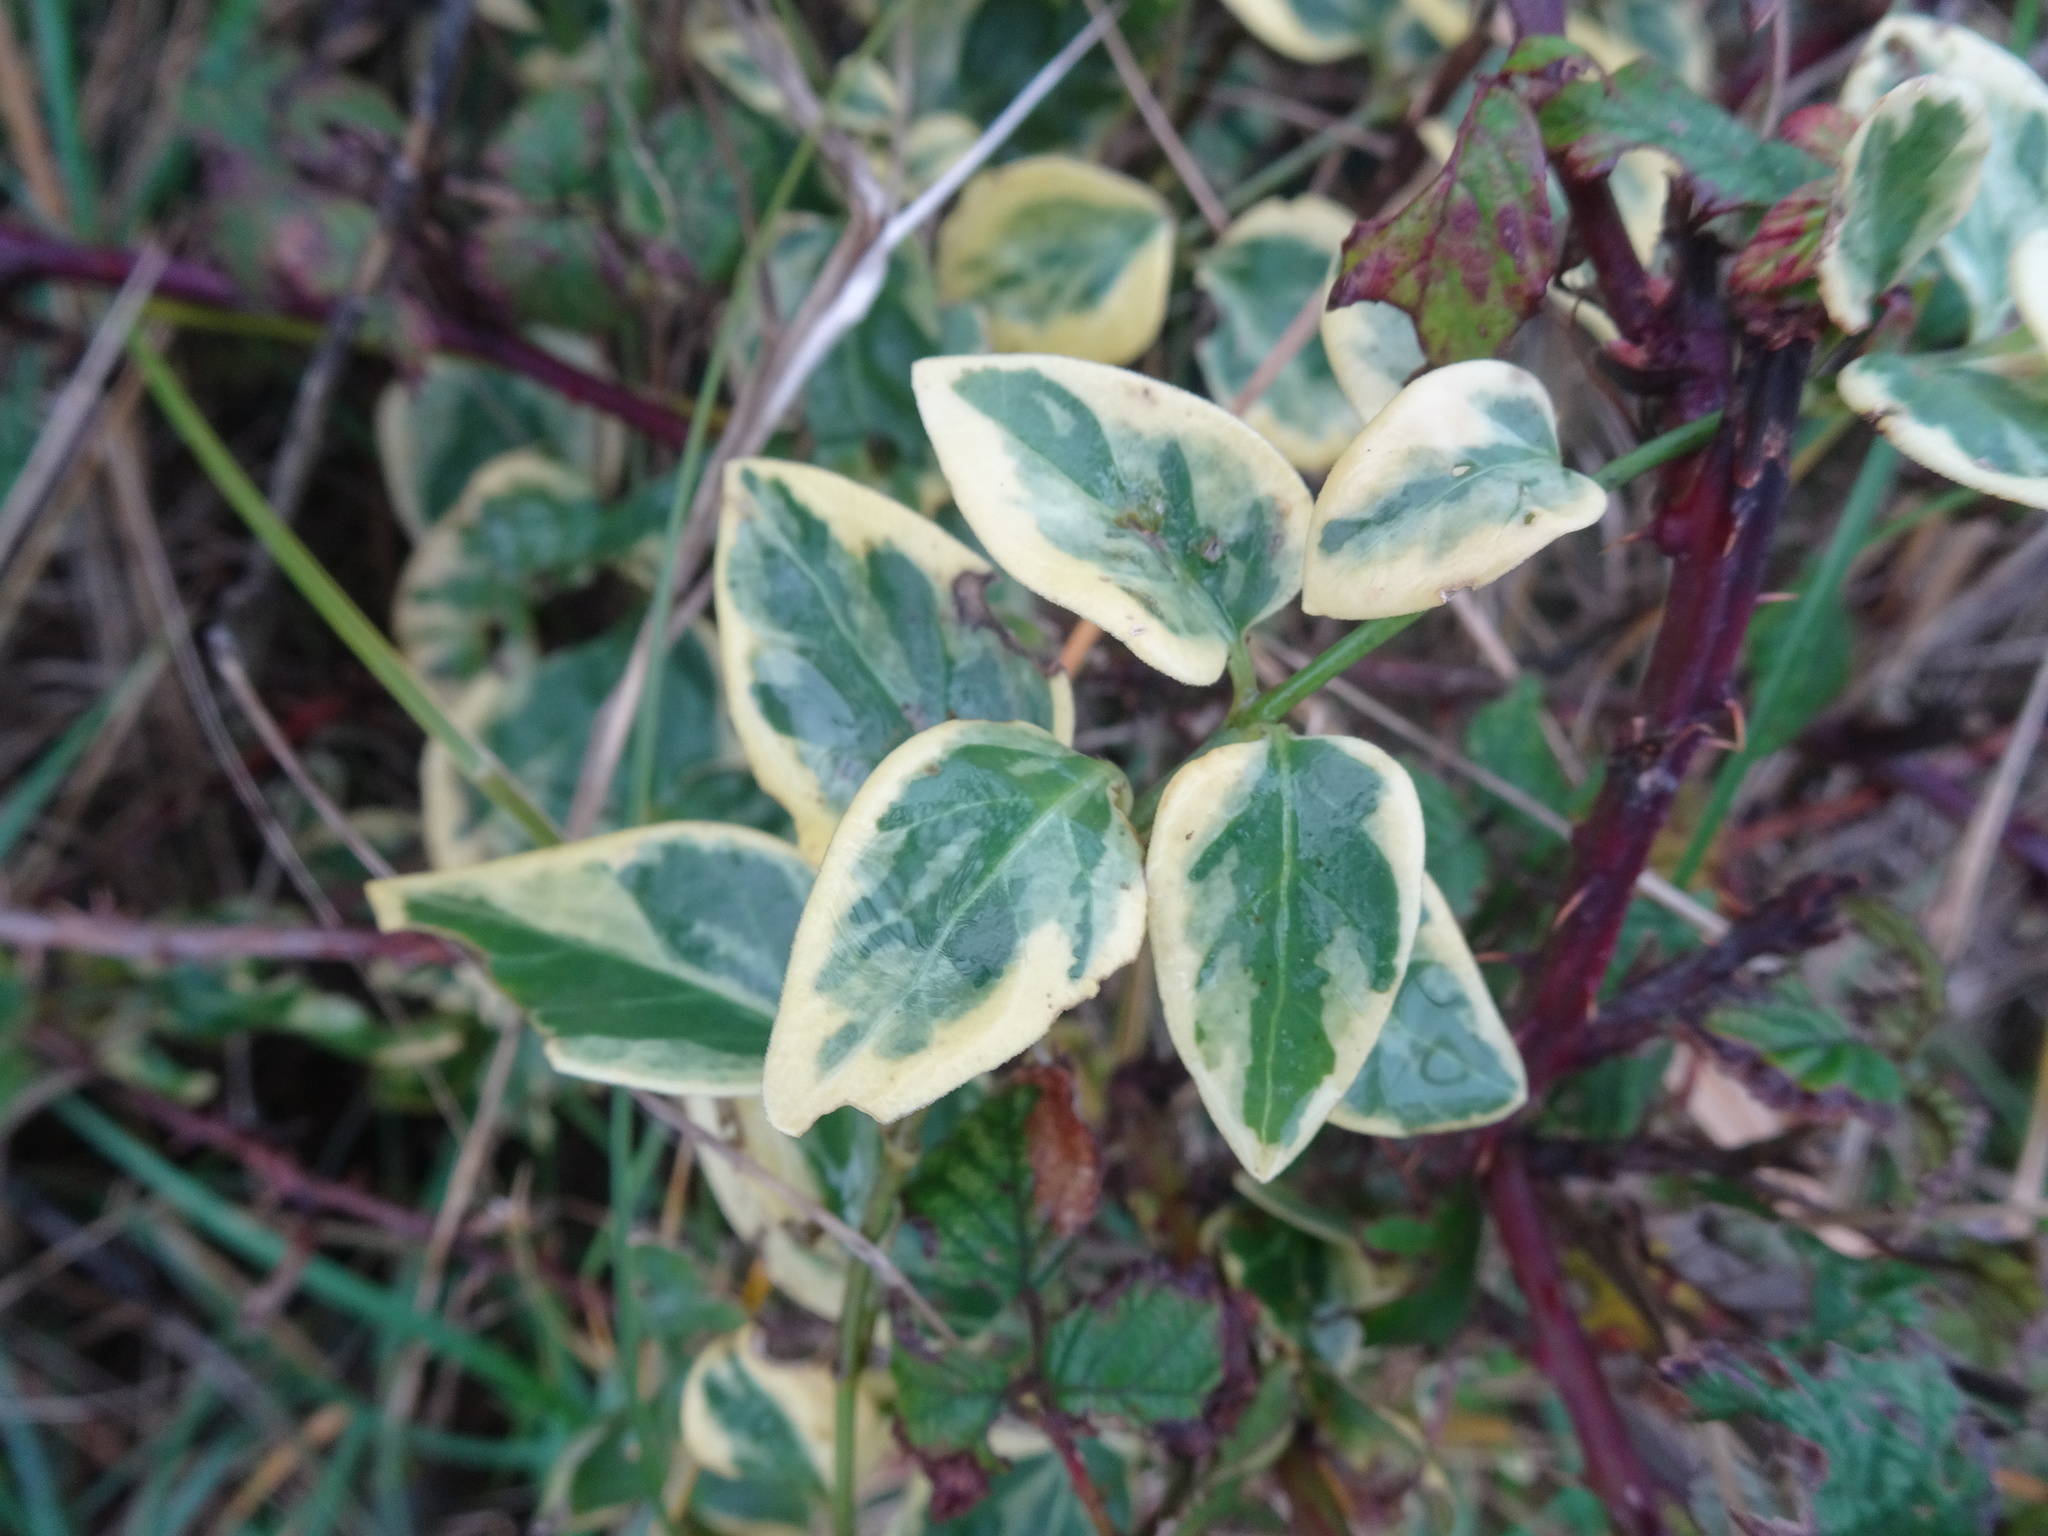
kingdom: Plantae
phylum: Tracheophyta
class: Magnoliopsida
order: Gentianales
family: Apocynaceae
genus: Vinca
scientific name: Vinca major
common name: Greater periwinkle
